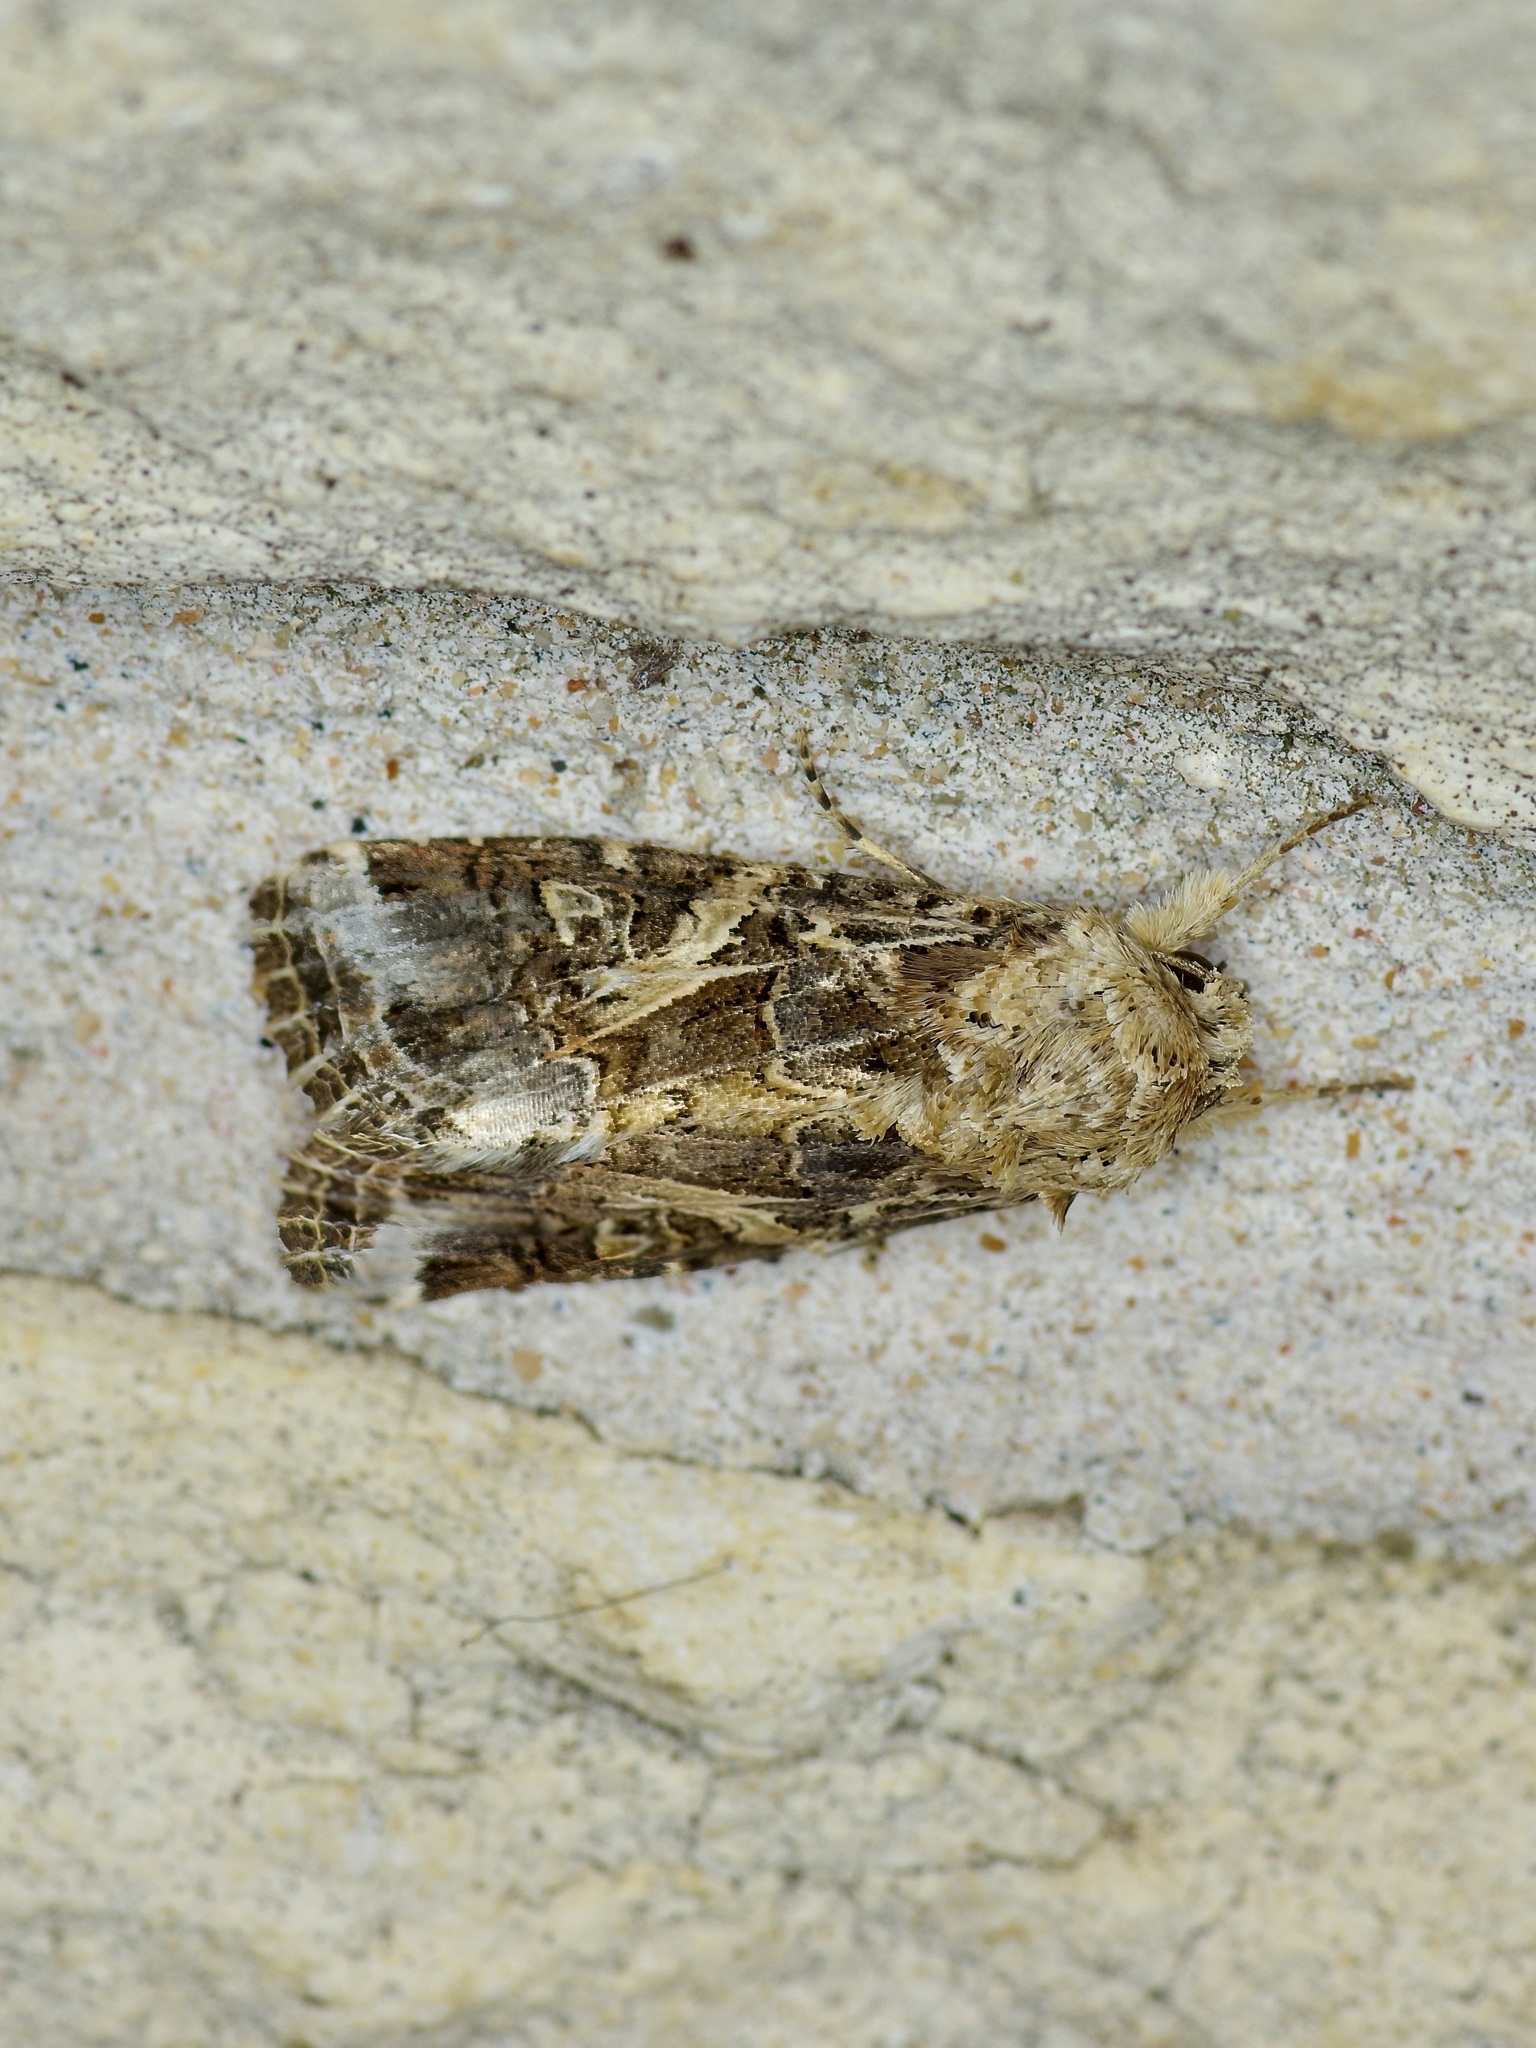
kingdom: Animalia
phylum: Arthropoda
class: Insecta
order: Lepidoptera
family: Noctuidae
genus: Spodoptera
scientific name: Spodoptera ornithogalli
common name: Yellow-striped armyworm
